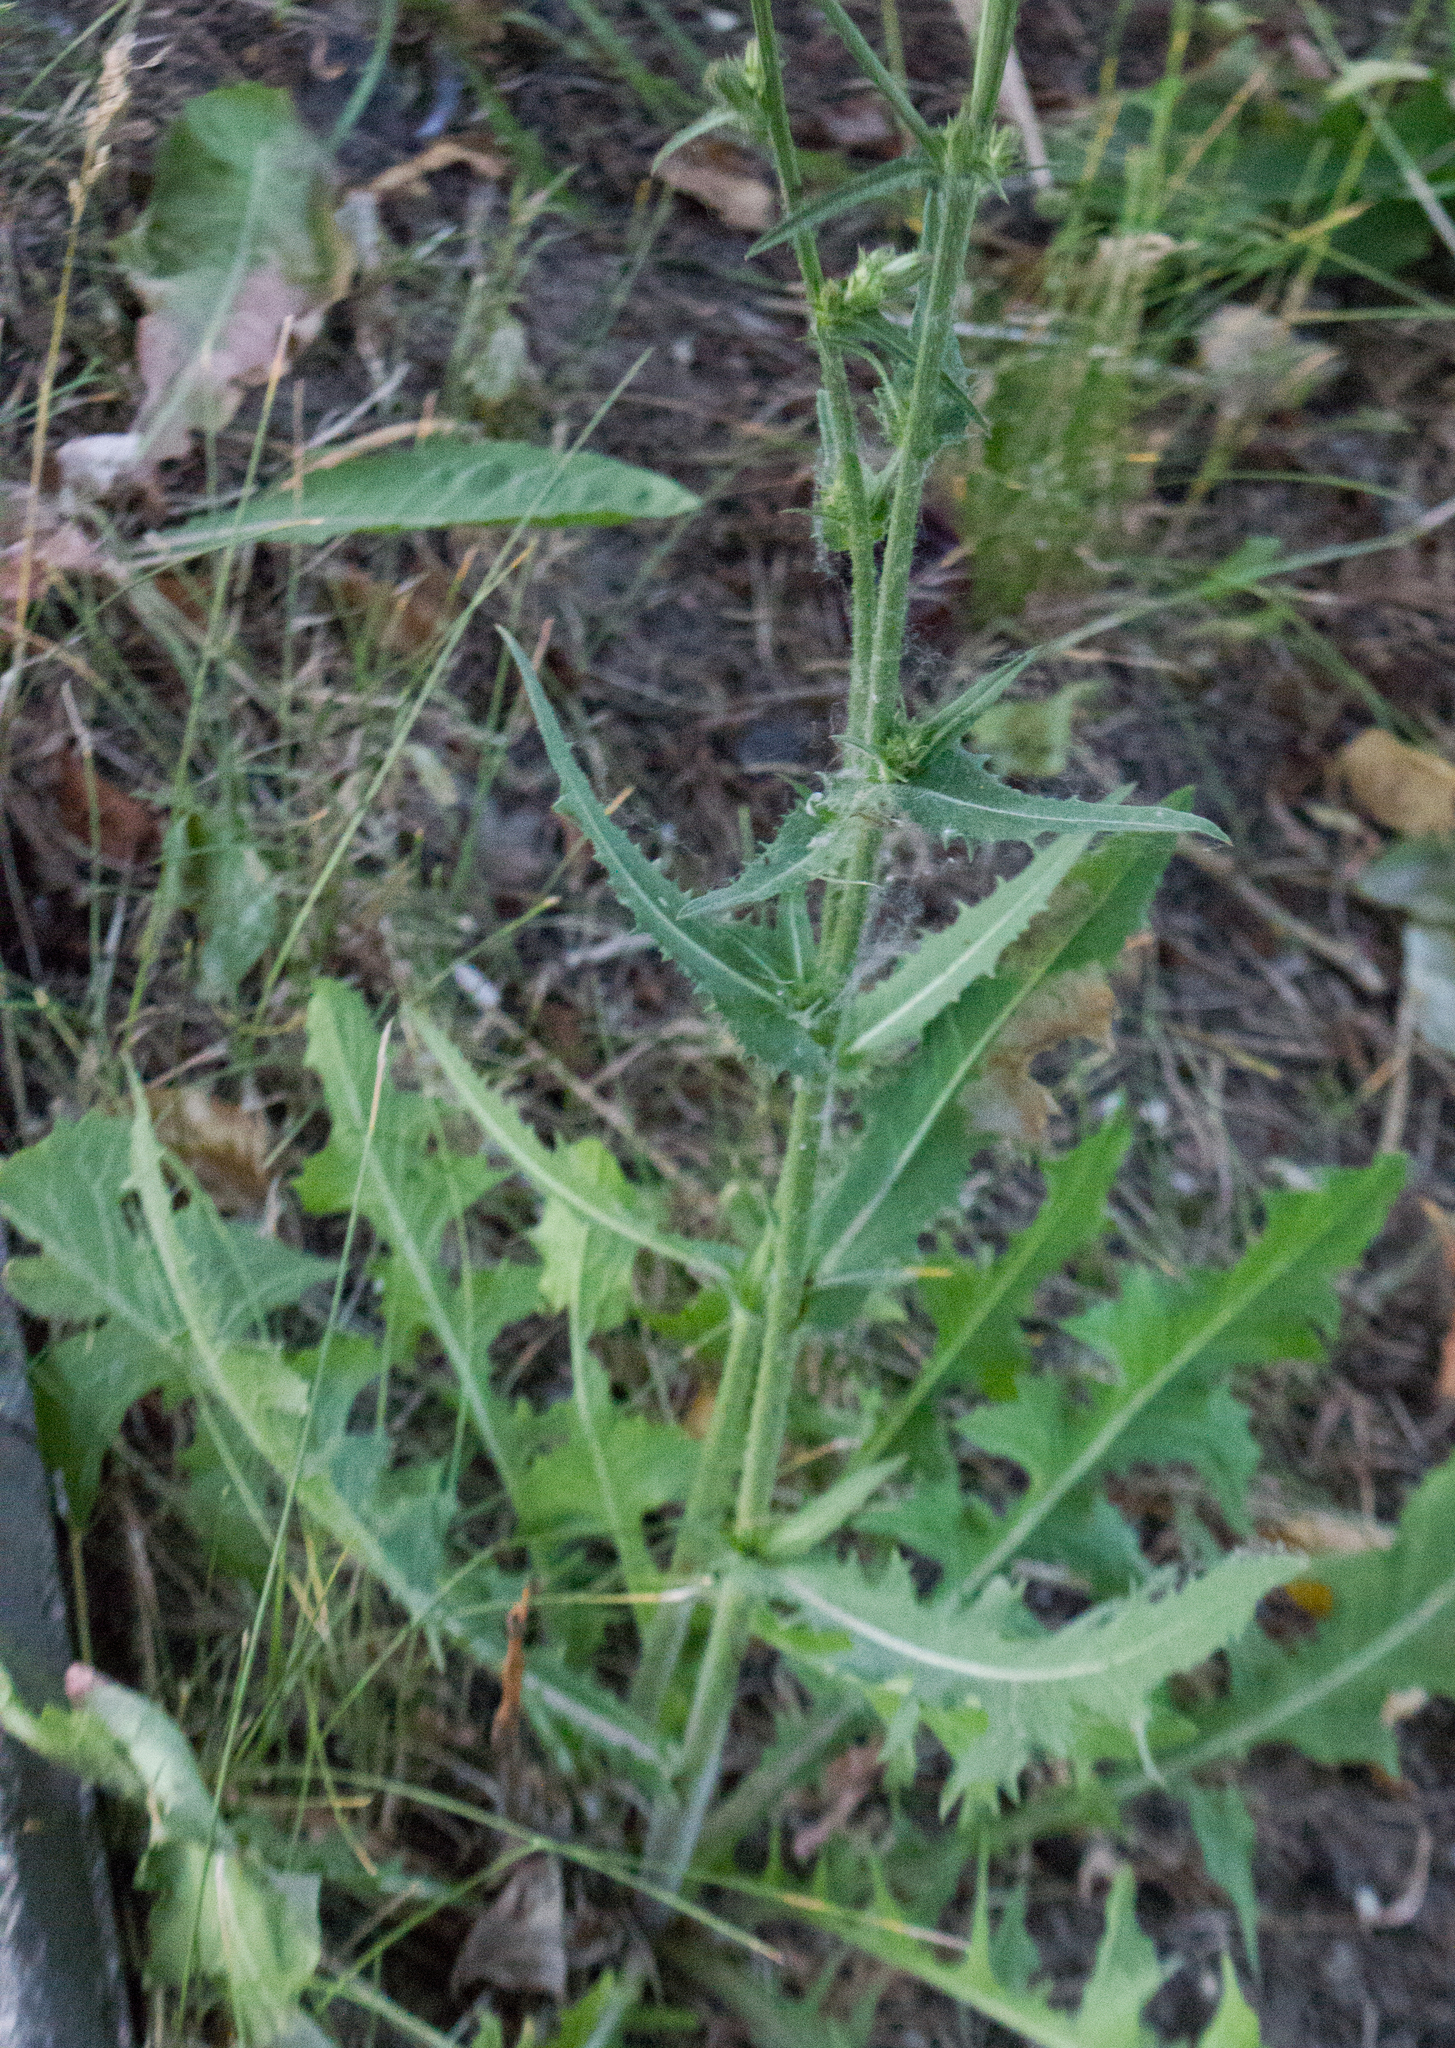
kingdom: Plantae
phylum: Tracheophyta
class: Magnoliopsida
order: Asterales
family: Asteraceae
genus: Cichorium
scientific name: Cichorium intybus
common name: Chicory
